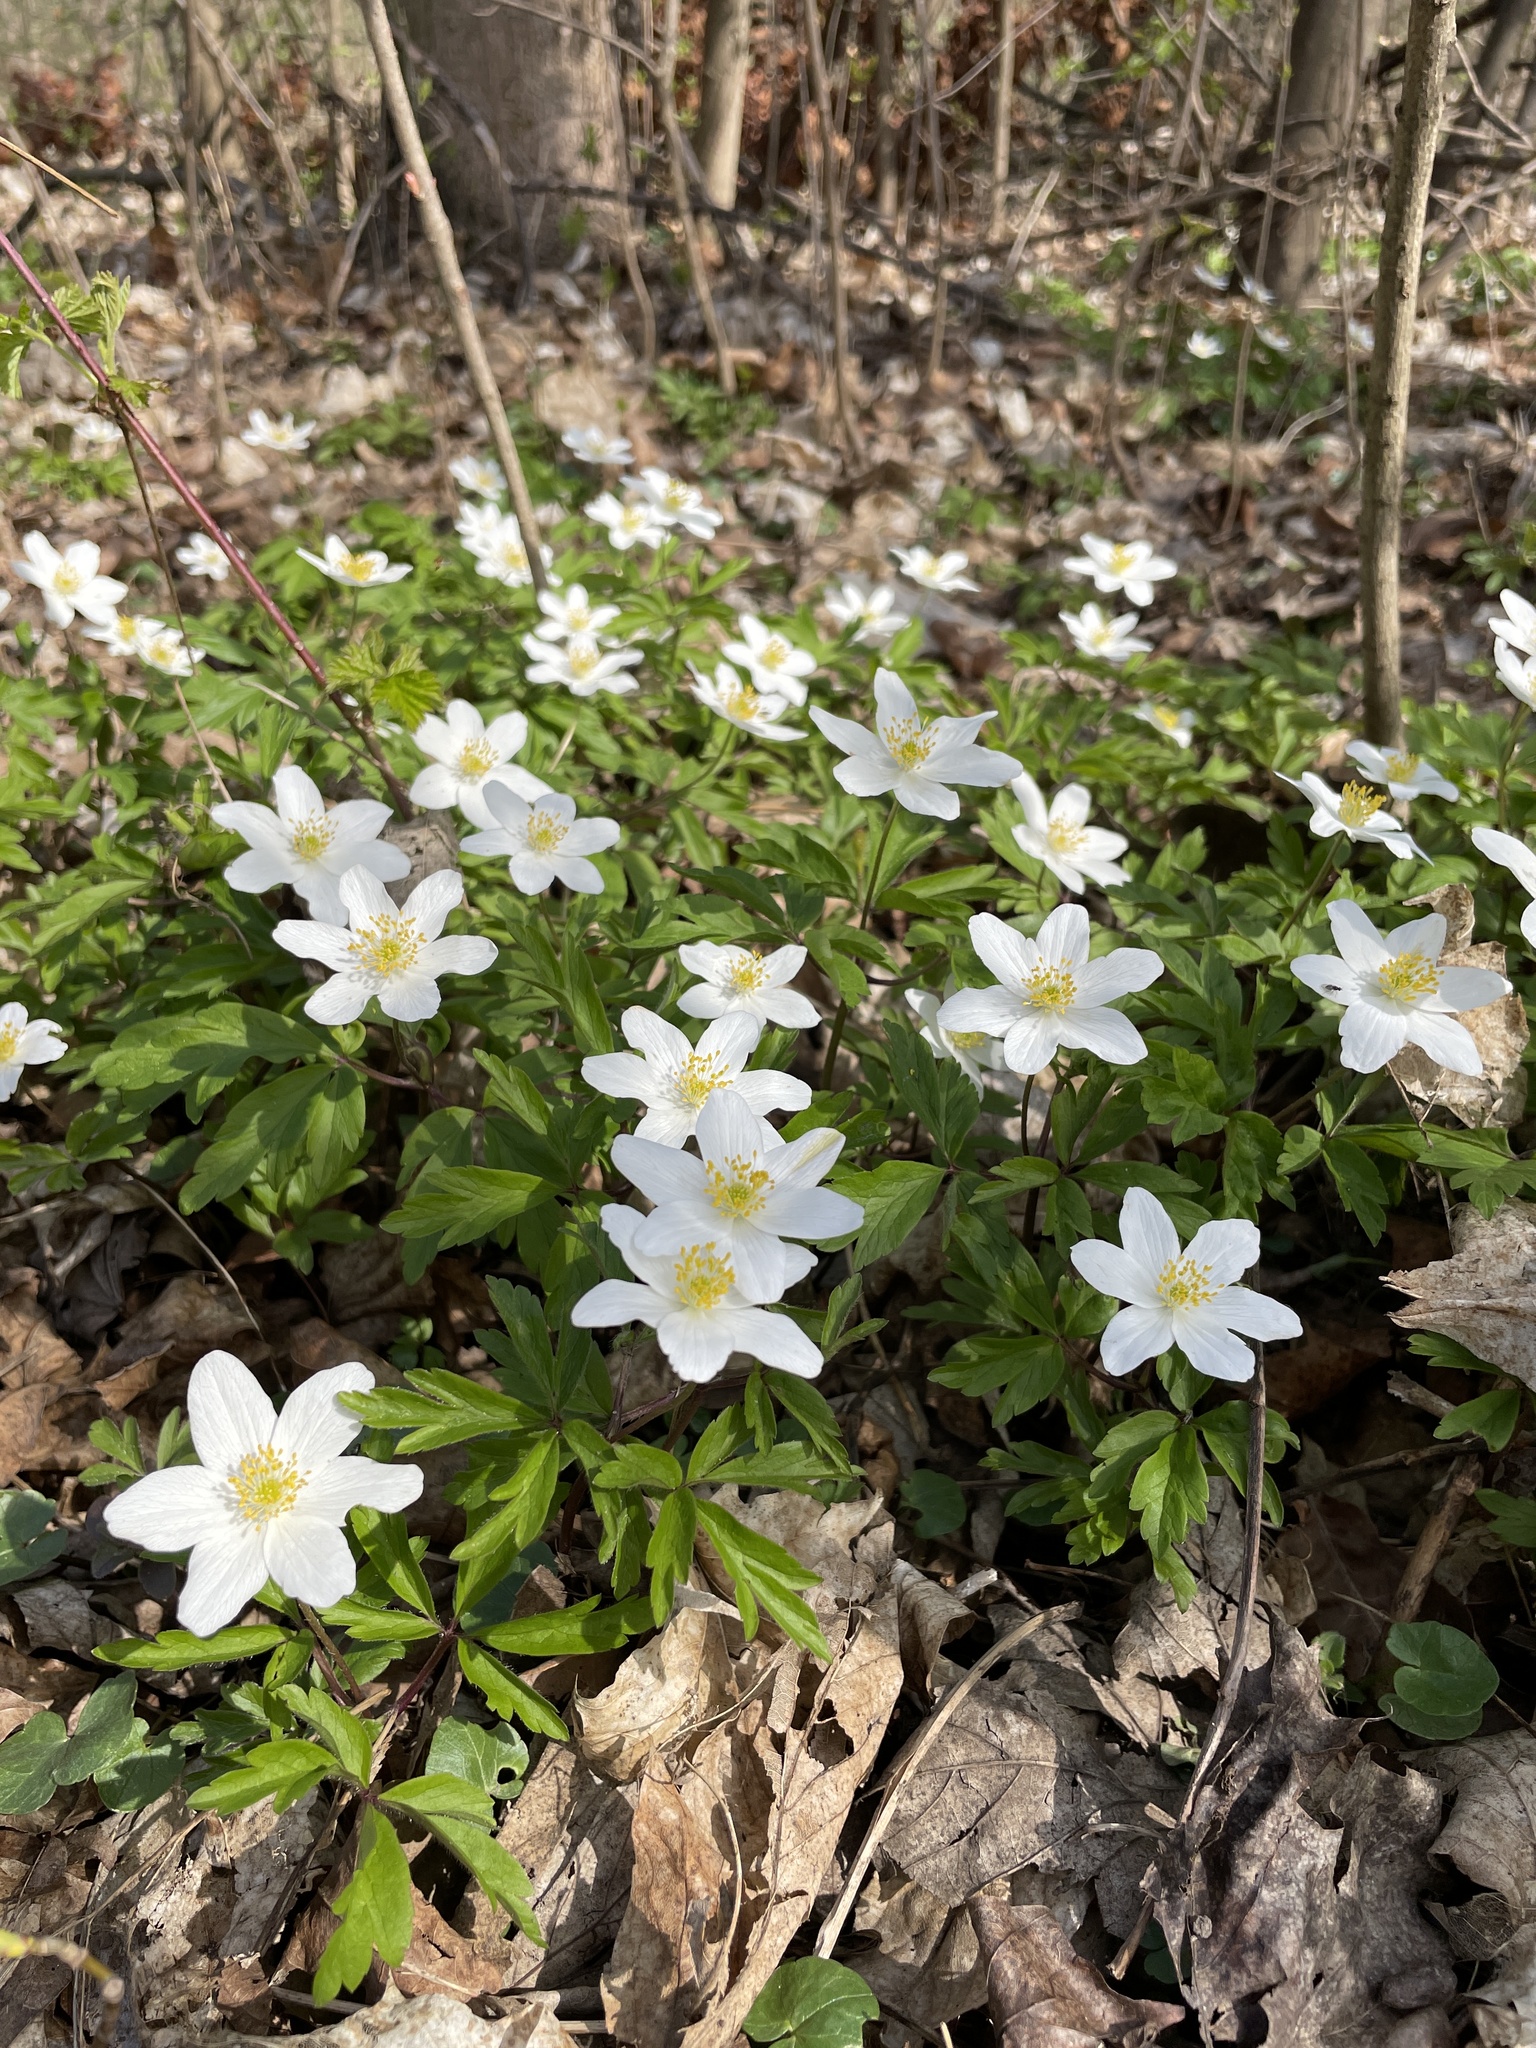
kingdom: Plantae
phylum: Tracheophyta
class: Magnoliopsida
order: Ranunculales
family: Ranunculaceae
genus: Anemone
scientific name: Anemone nemorosa
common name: Wood anemone
